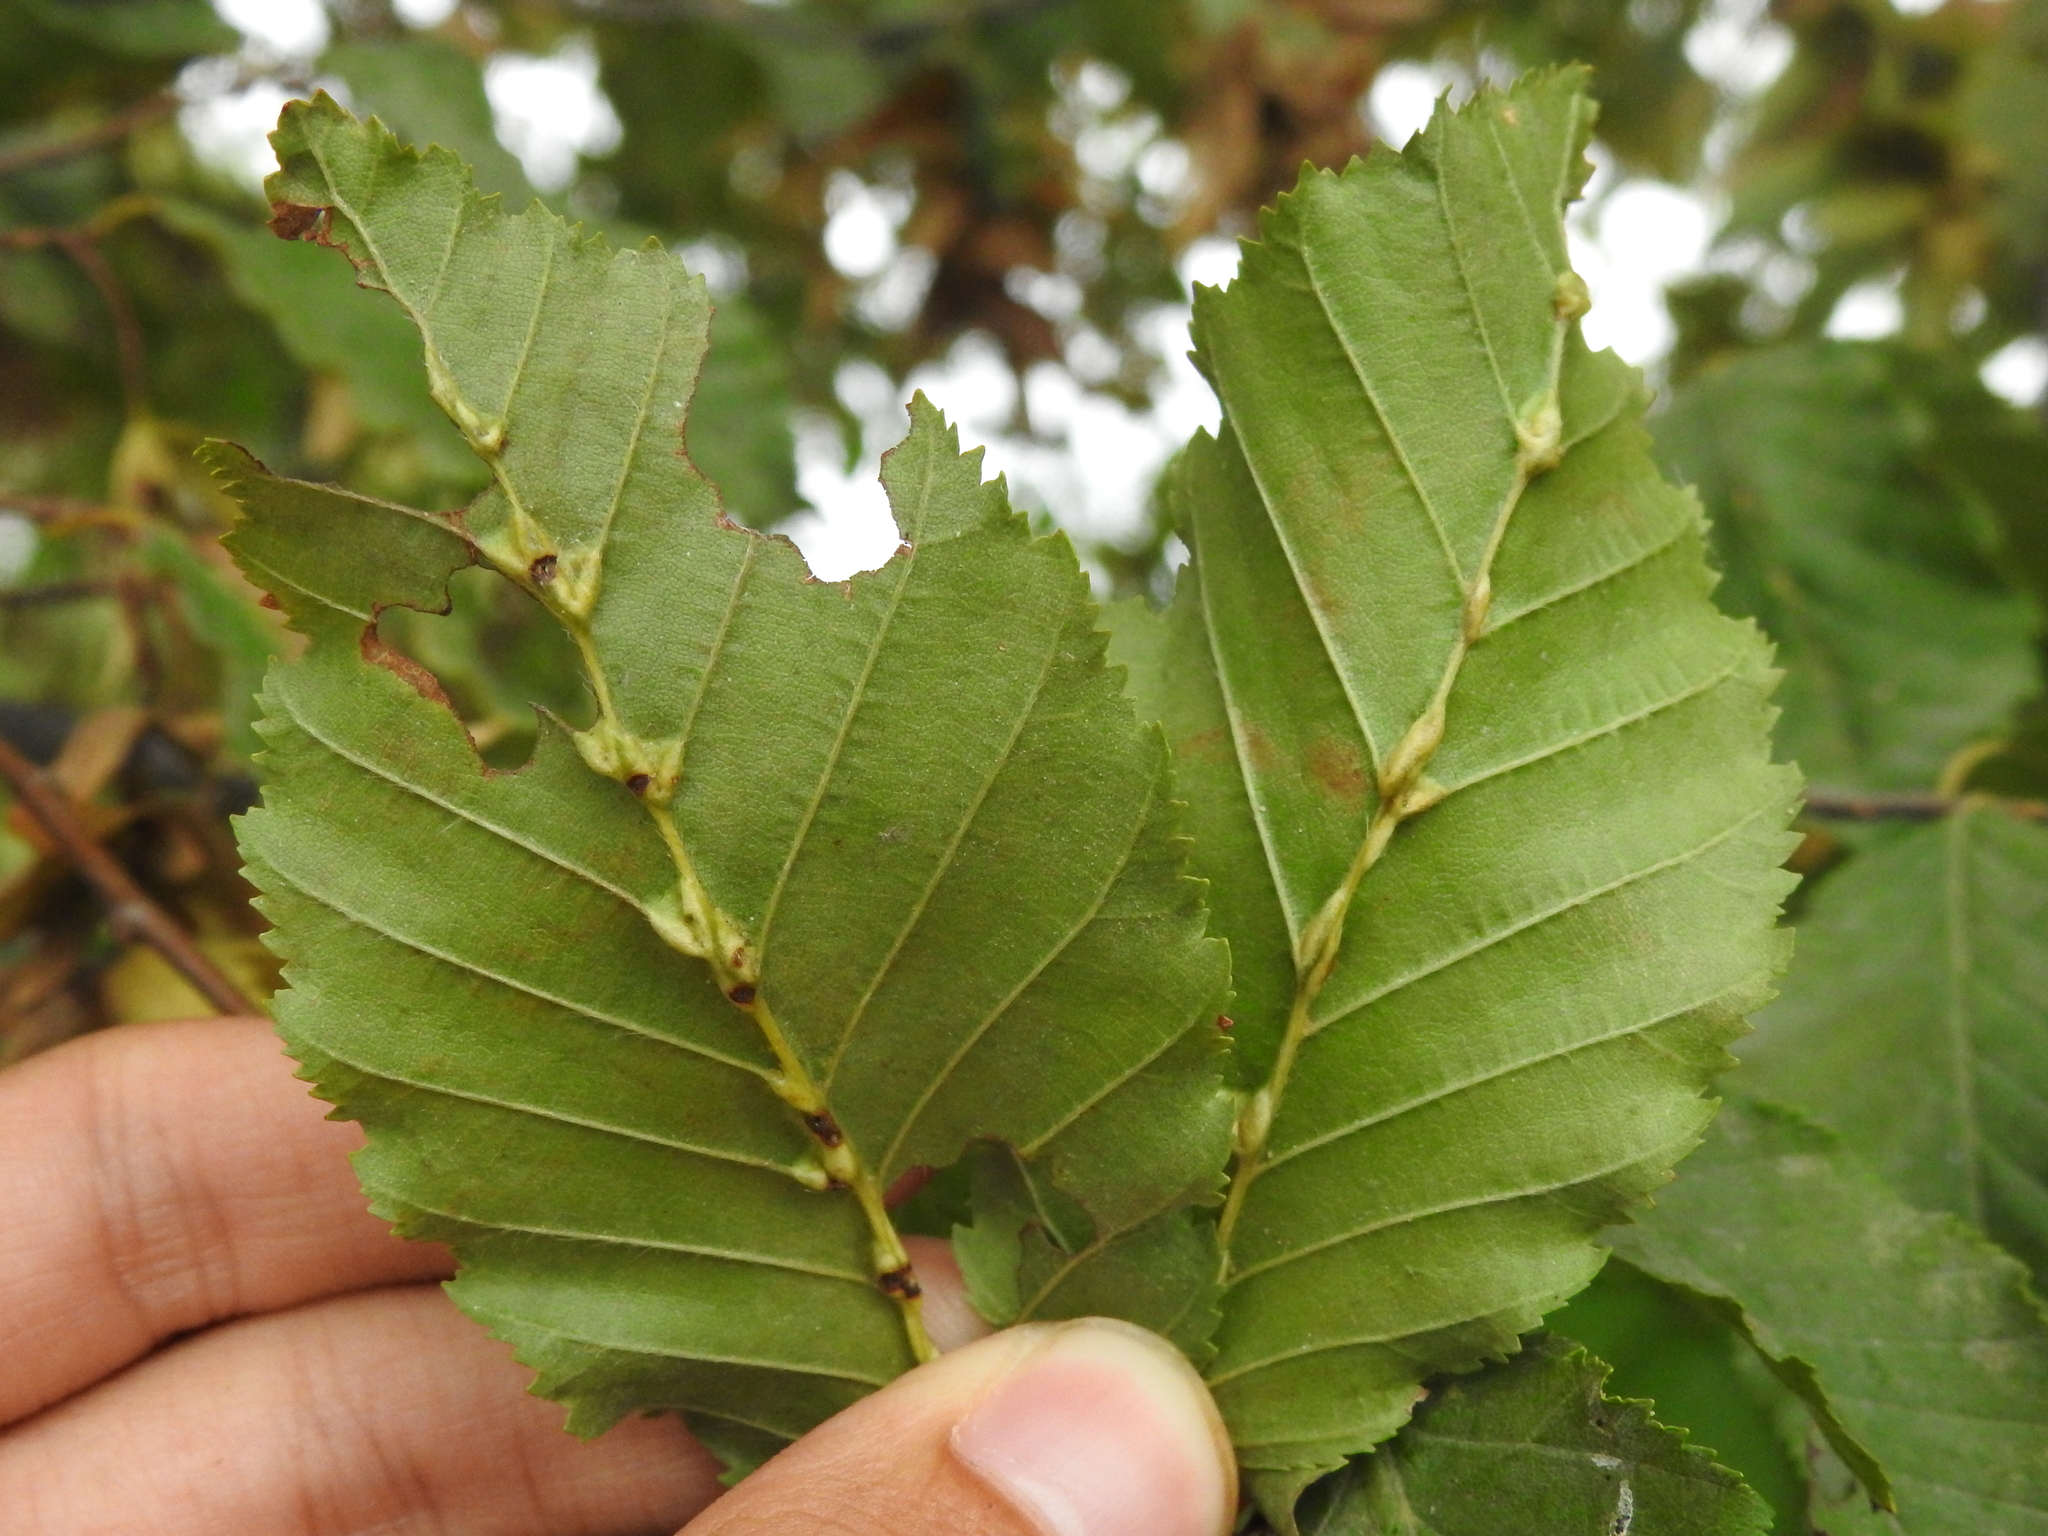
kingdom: Animalia
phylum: Arthropoda
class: Insecta
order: Diptera
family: Cecidomyiidae
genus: Zygiobia
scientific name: Zygiobia carpini
